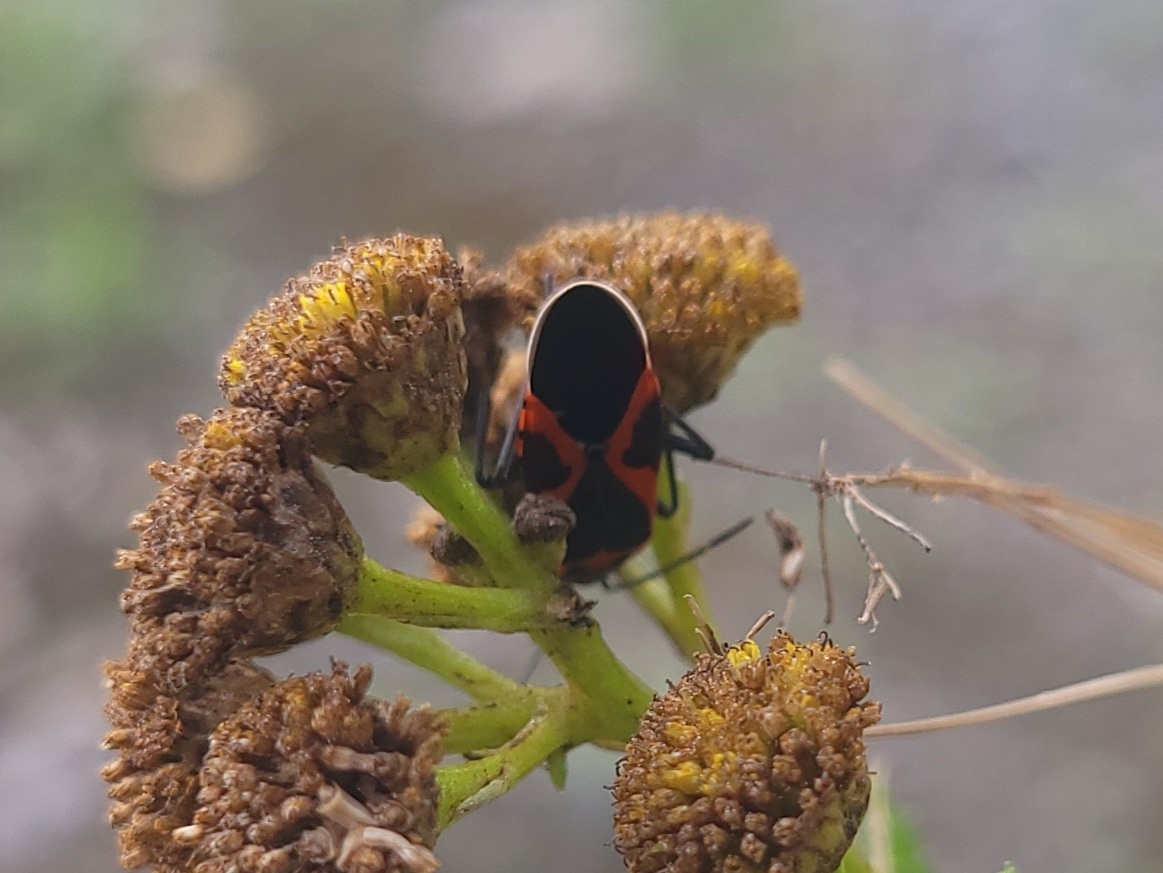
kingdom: Animalia
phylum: Arthropoda
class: Insecta
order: Hemiptera
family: Lygaeidae
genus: Lygaeus
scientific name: Lygaeus kalmii
